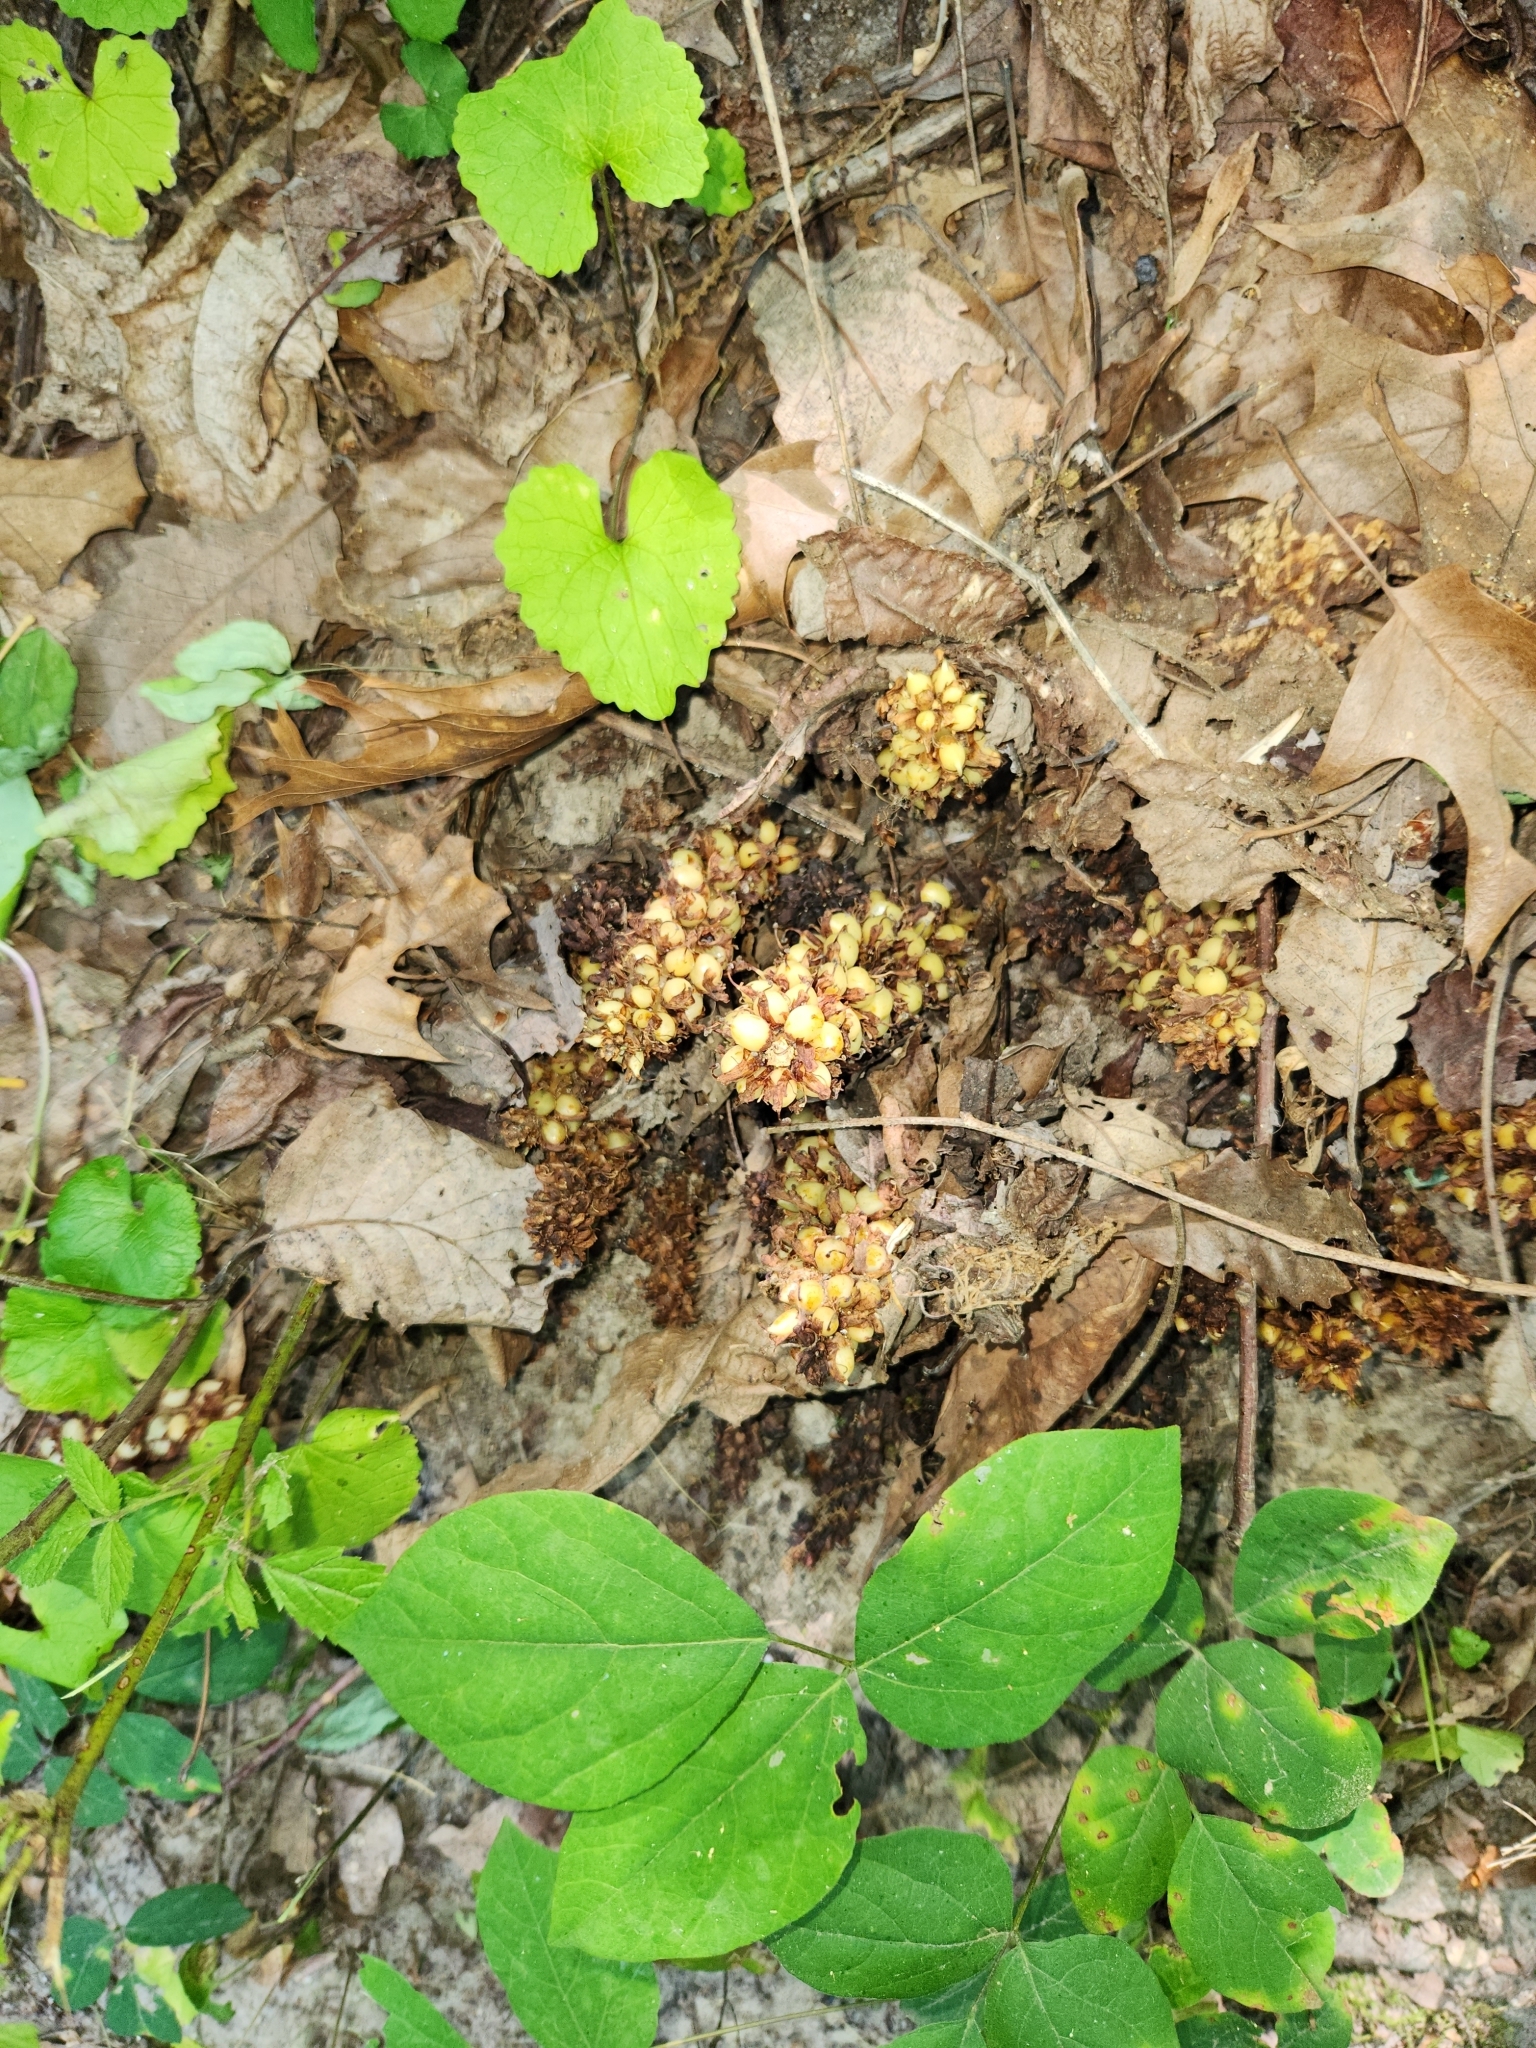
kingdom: Plantae
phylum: Tracheophyta
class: Magnoliopsida
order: Lamiales
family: Orobanchaceae
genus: Conopholis
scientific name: Conopholis americana
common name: American cancer-root
